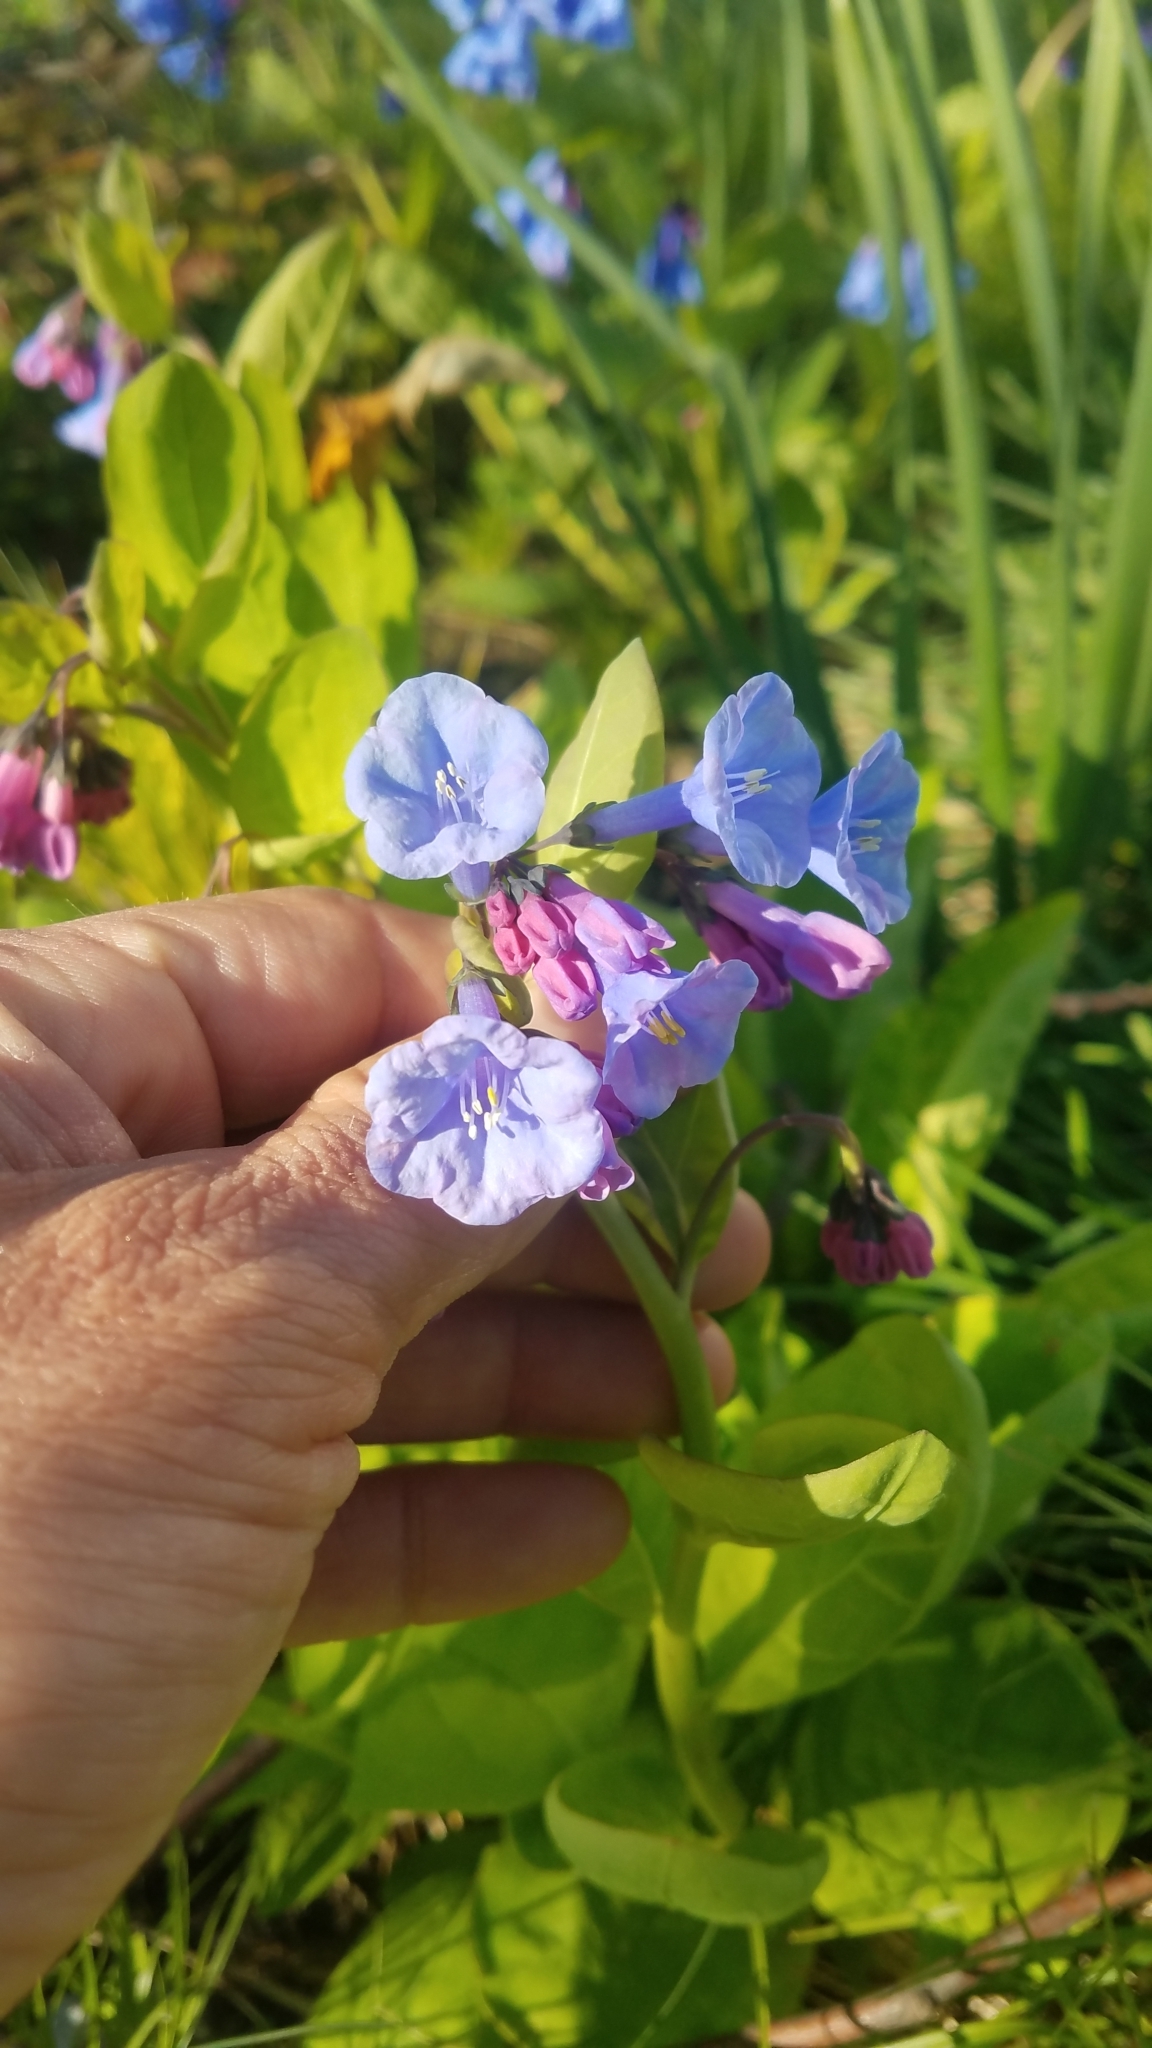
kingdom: Plantae
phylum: Tracheophyta
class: Magnoliopsida
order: Boraginales
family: Boraginaceae
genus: Mertensia
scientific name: Mertensia virginica
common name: Virginia bluebells
